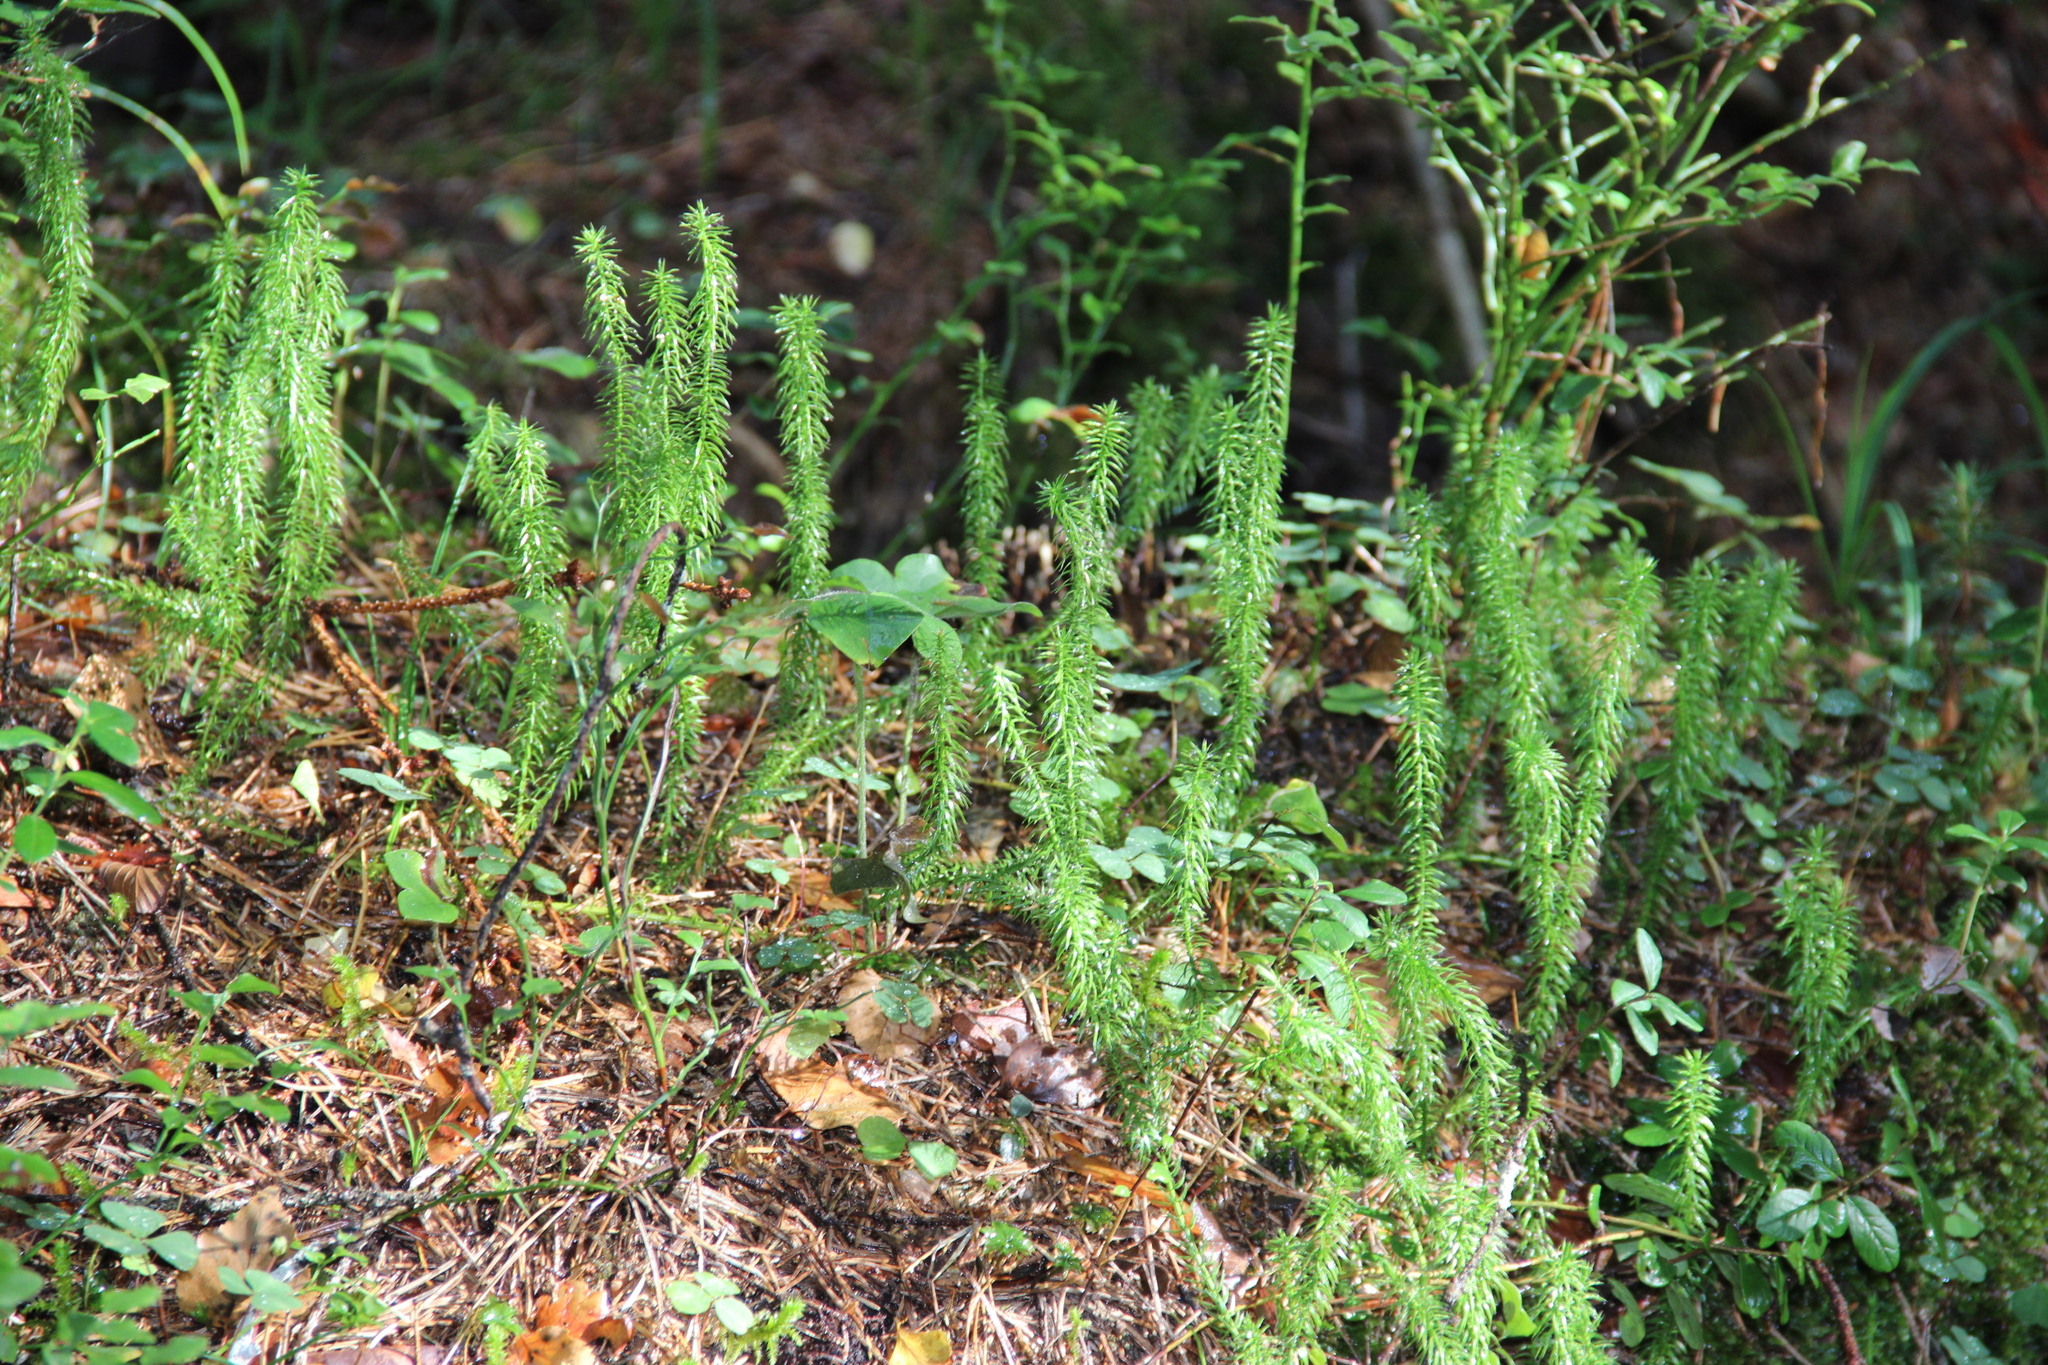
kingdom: Plantae
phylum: Tracheophyta
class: Lycopodiopsida
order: Lycopodiales
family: Lycopodiaceae
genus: Spinulum
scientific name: Spinulum annotinum
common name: Interrupted club-moss
